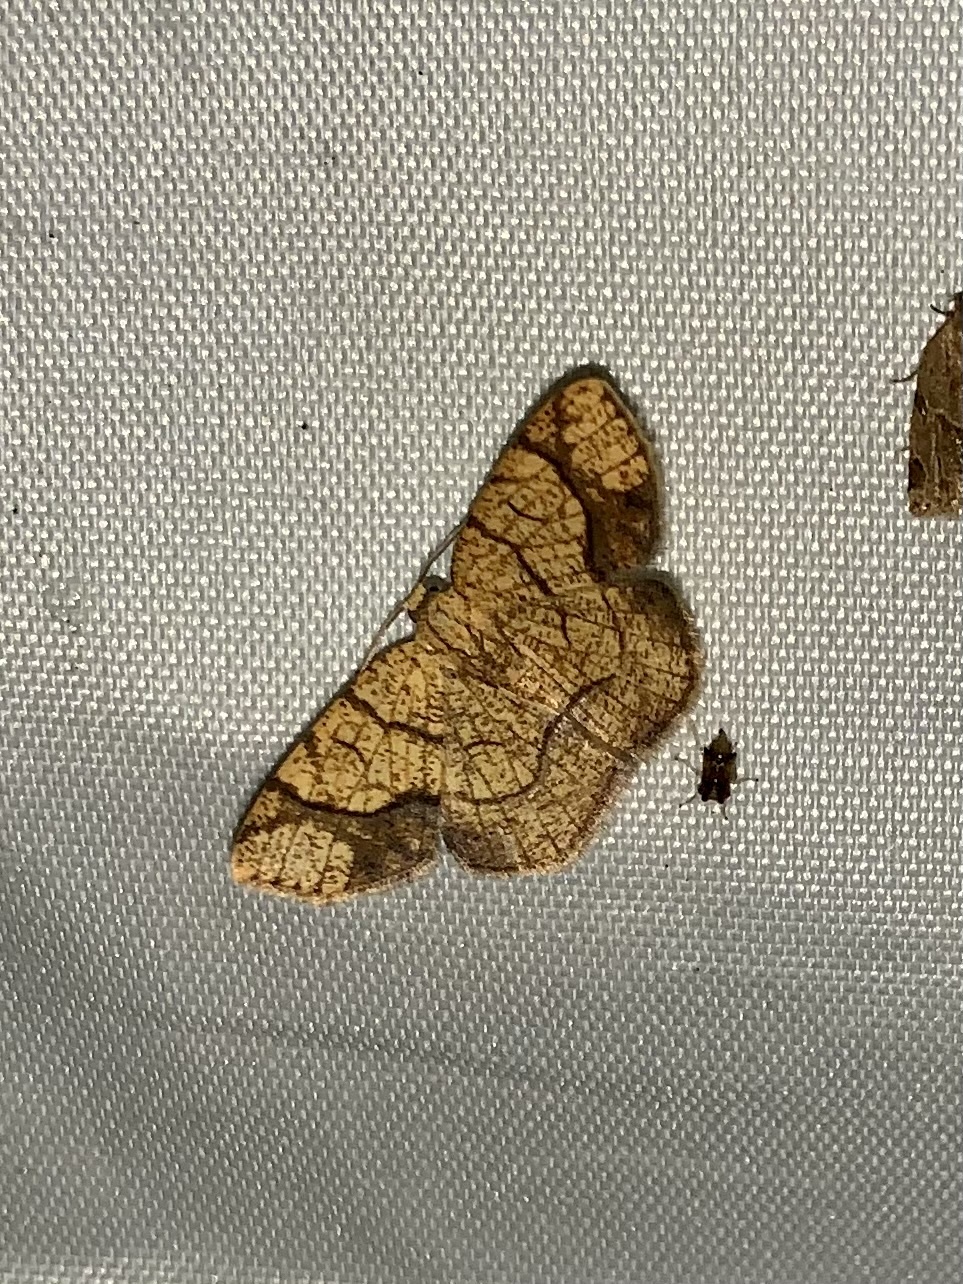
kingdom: Animalia
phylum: Arthropoda
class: Insecta
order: Lepidoptera
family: Geometridae
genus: Nematocampa
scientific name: Nematocampa arenosa
